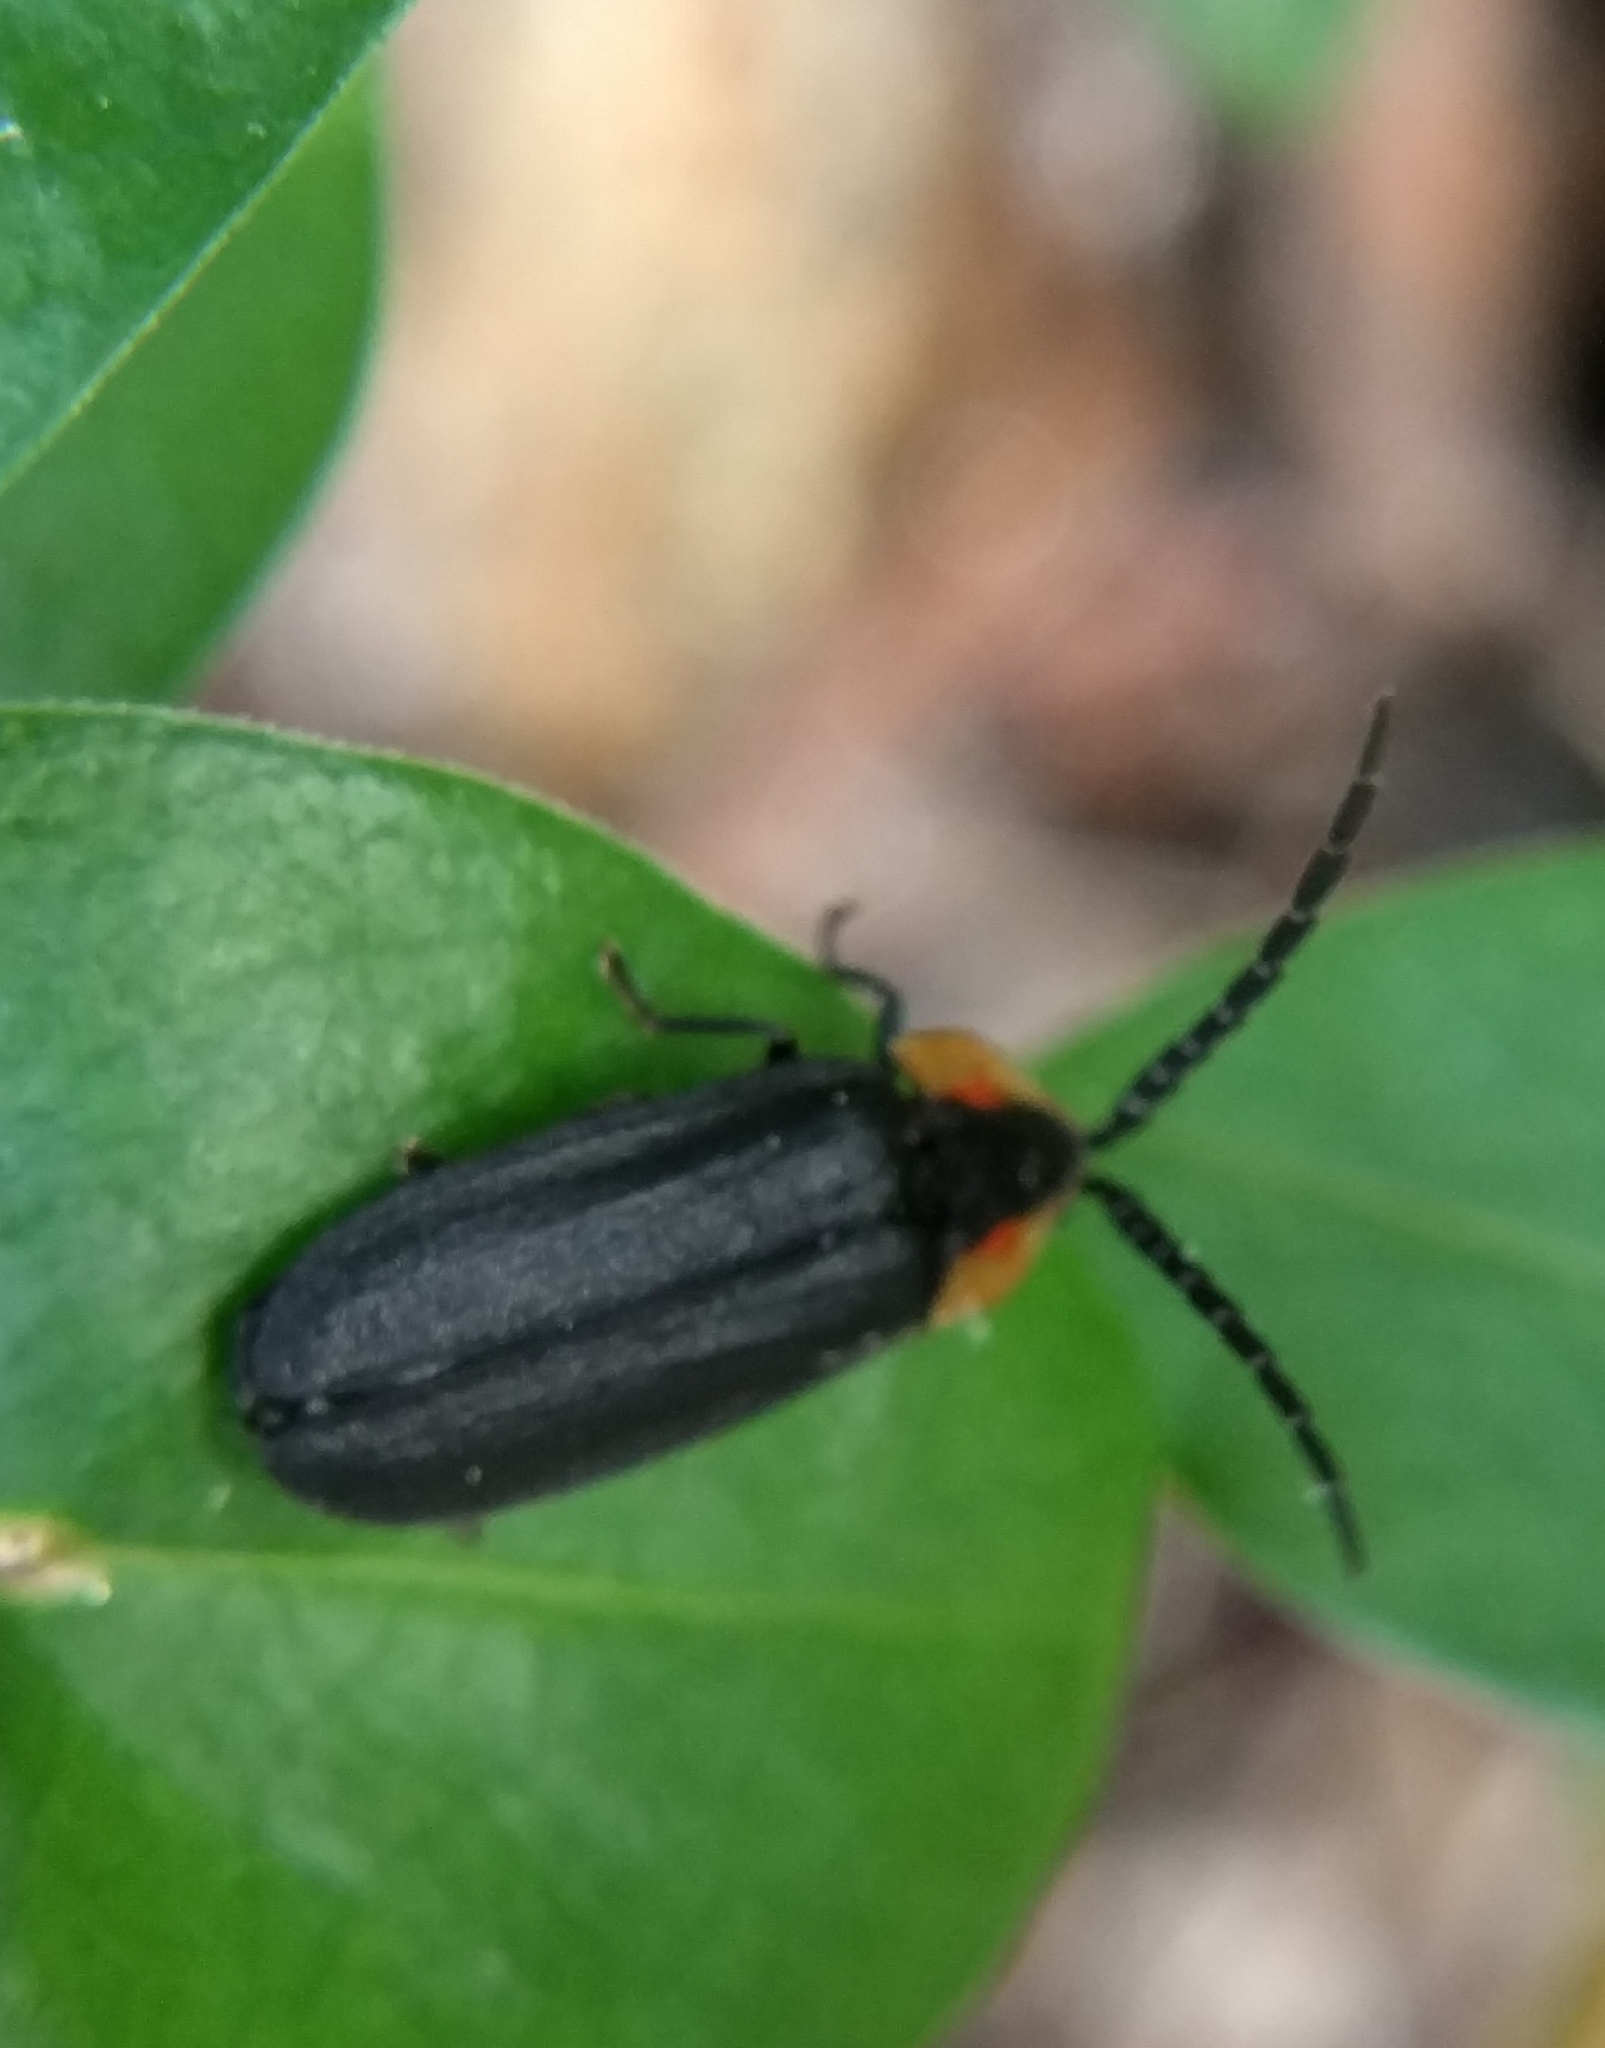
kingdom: Animalia
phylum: Arthropoda
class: Insecta
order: Coleoptera
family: Lampyridae
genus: Lucidota
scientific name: Lucidota atra
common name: Black firefly
